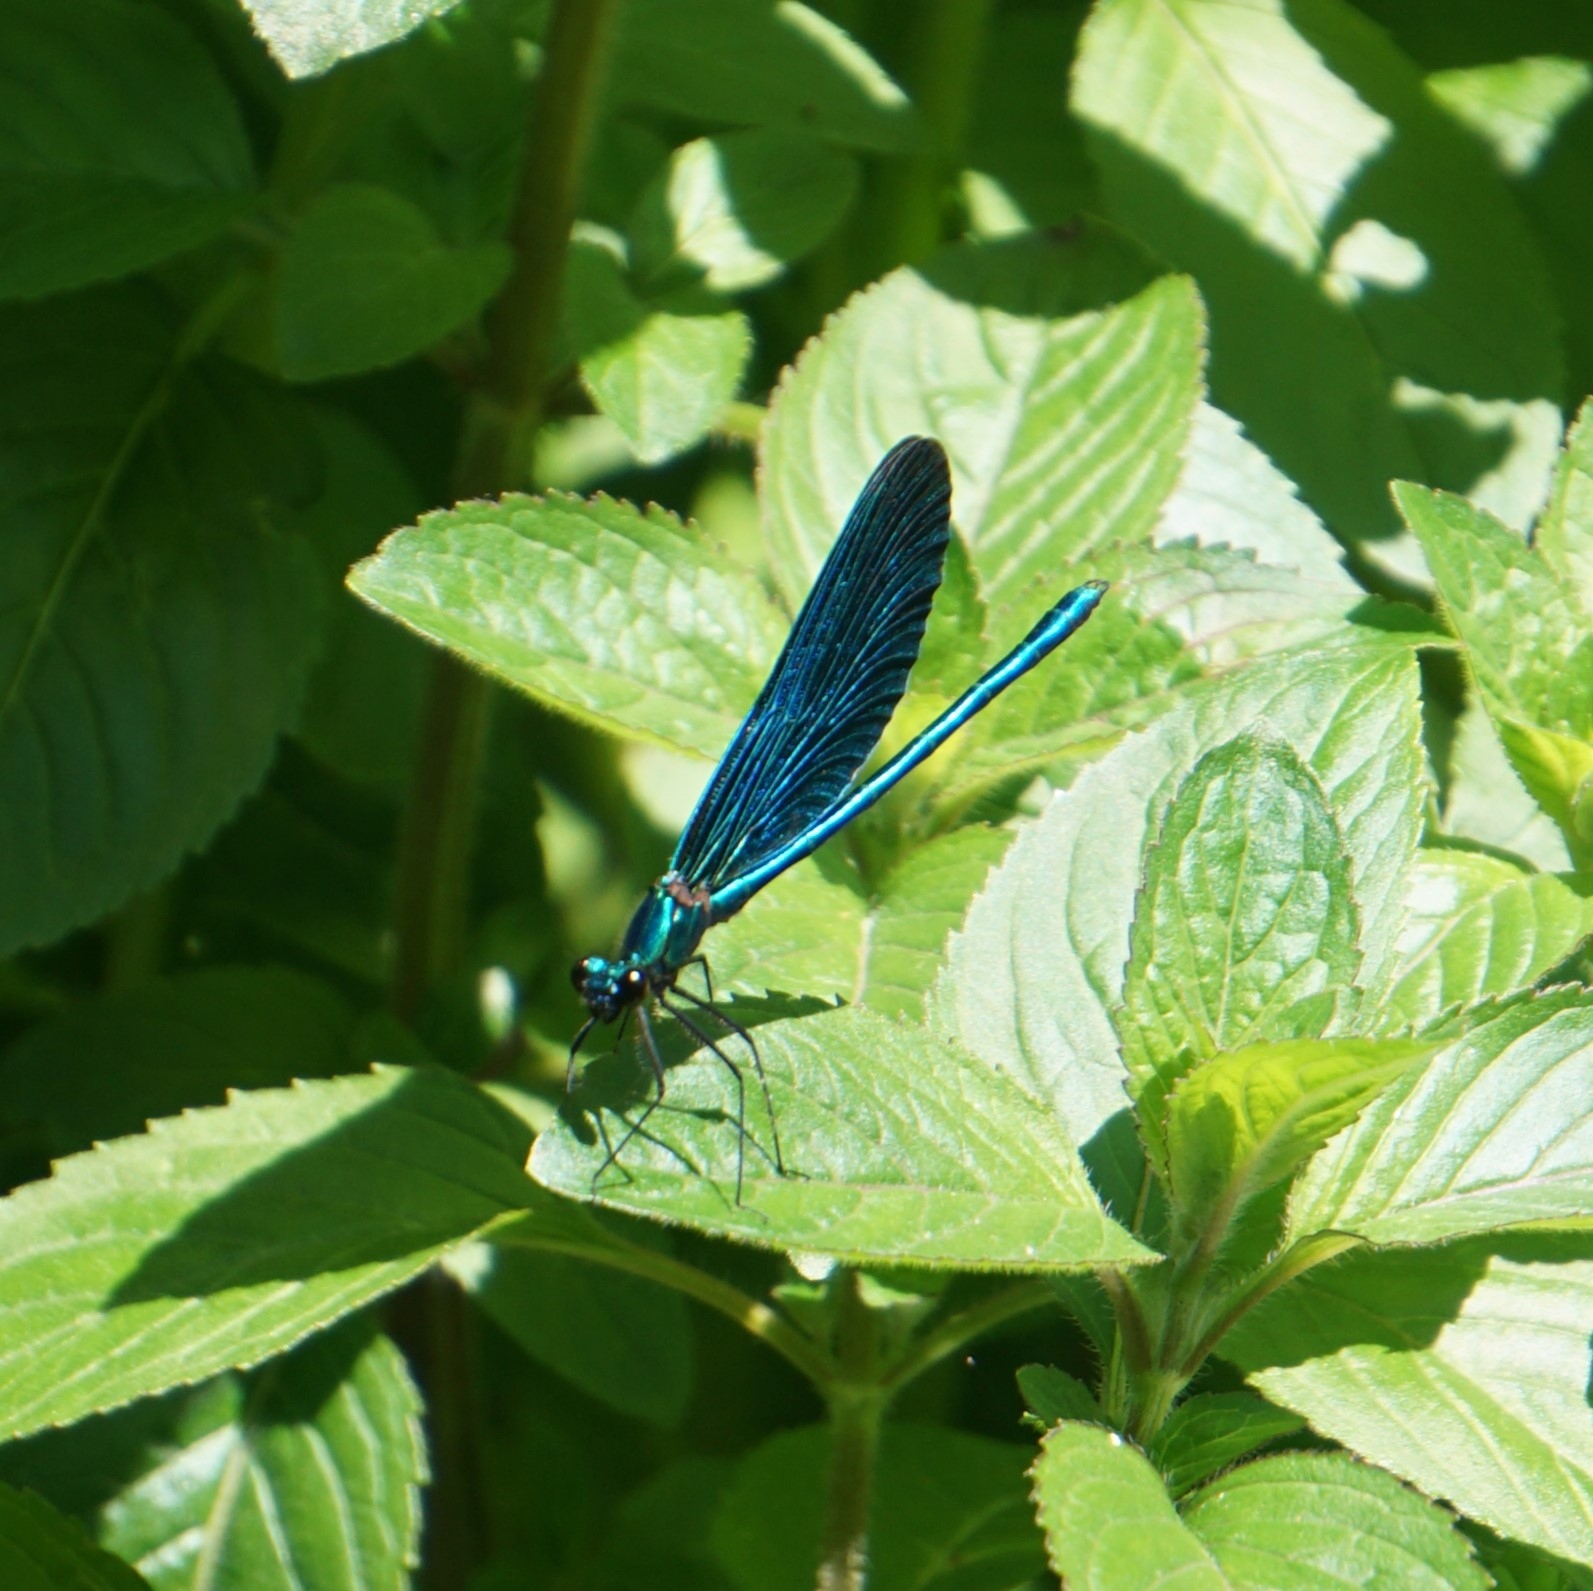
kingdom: Animalia
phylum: Arthropoda
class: Insecta
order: Odonata
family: Calopterygidae
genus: Calopteryx
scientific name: Calopteryx virgo
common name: Beautiful demoiselle
